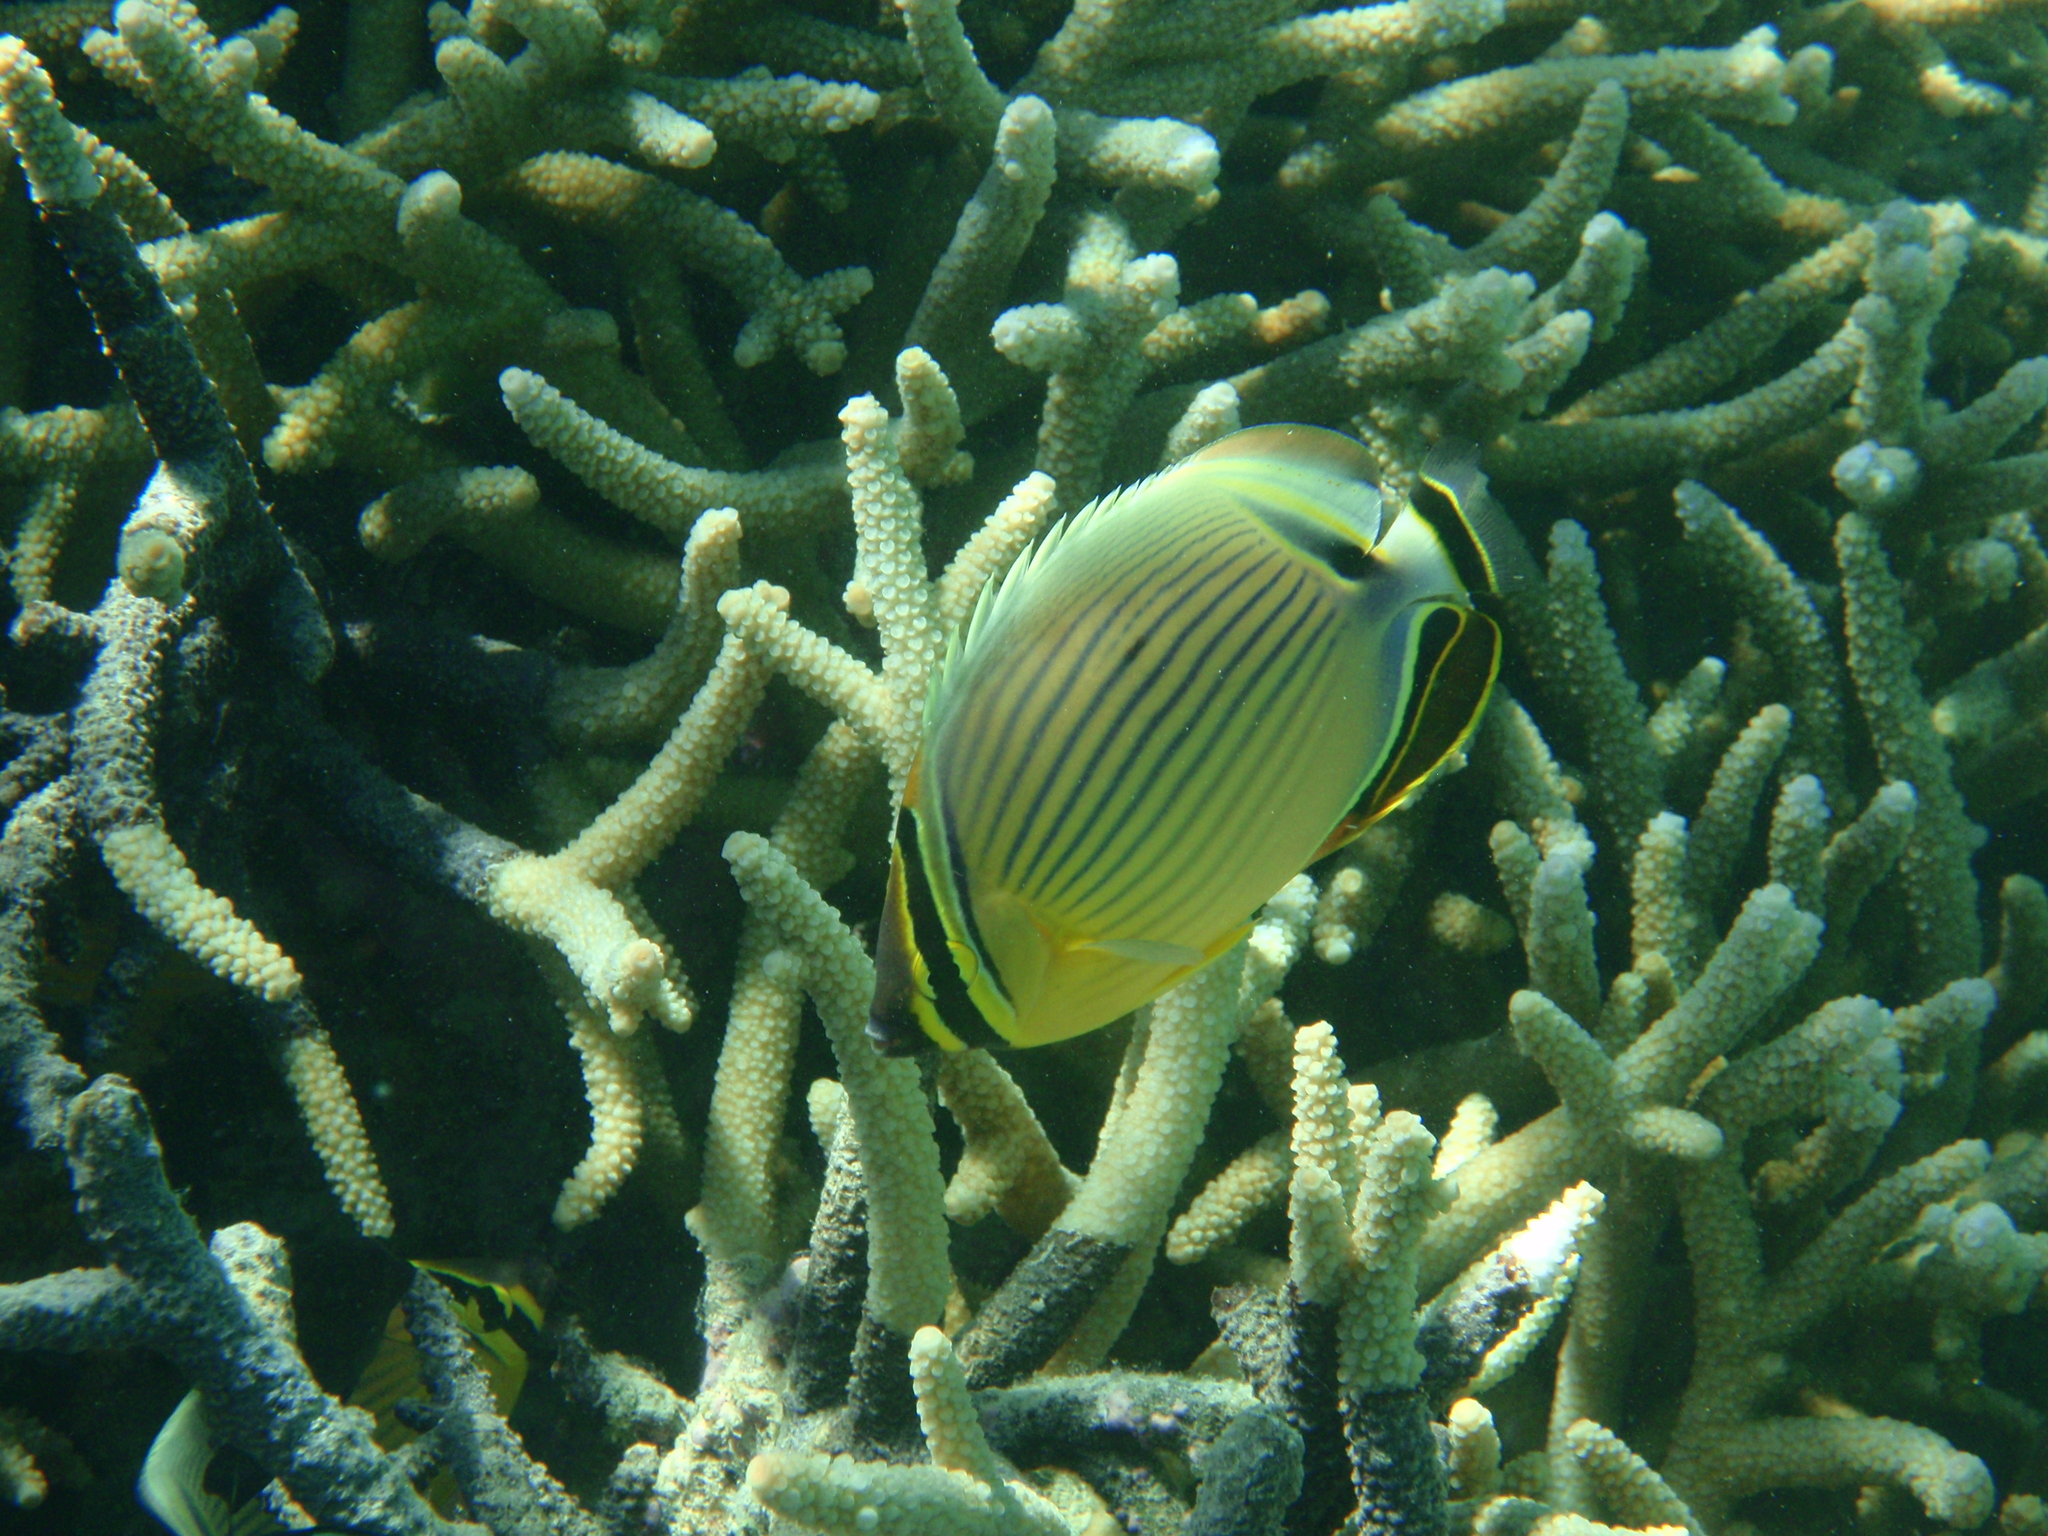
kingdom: Animalia
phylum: Chordata
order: Perciformes
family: Chaetodontidae
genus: Chaetodon
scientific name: Chaetodon lunulatus
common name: Redfin butterflyfish
